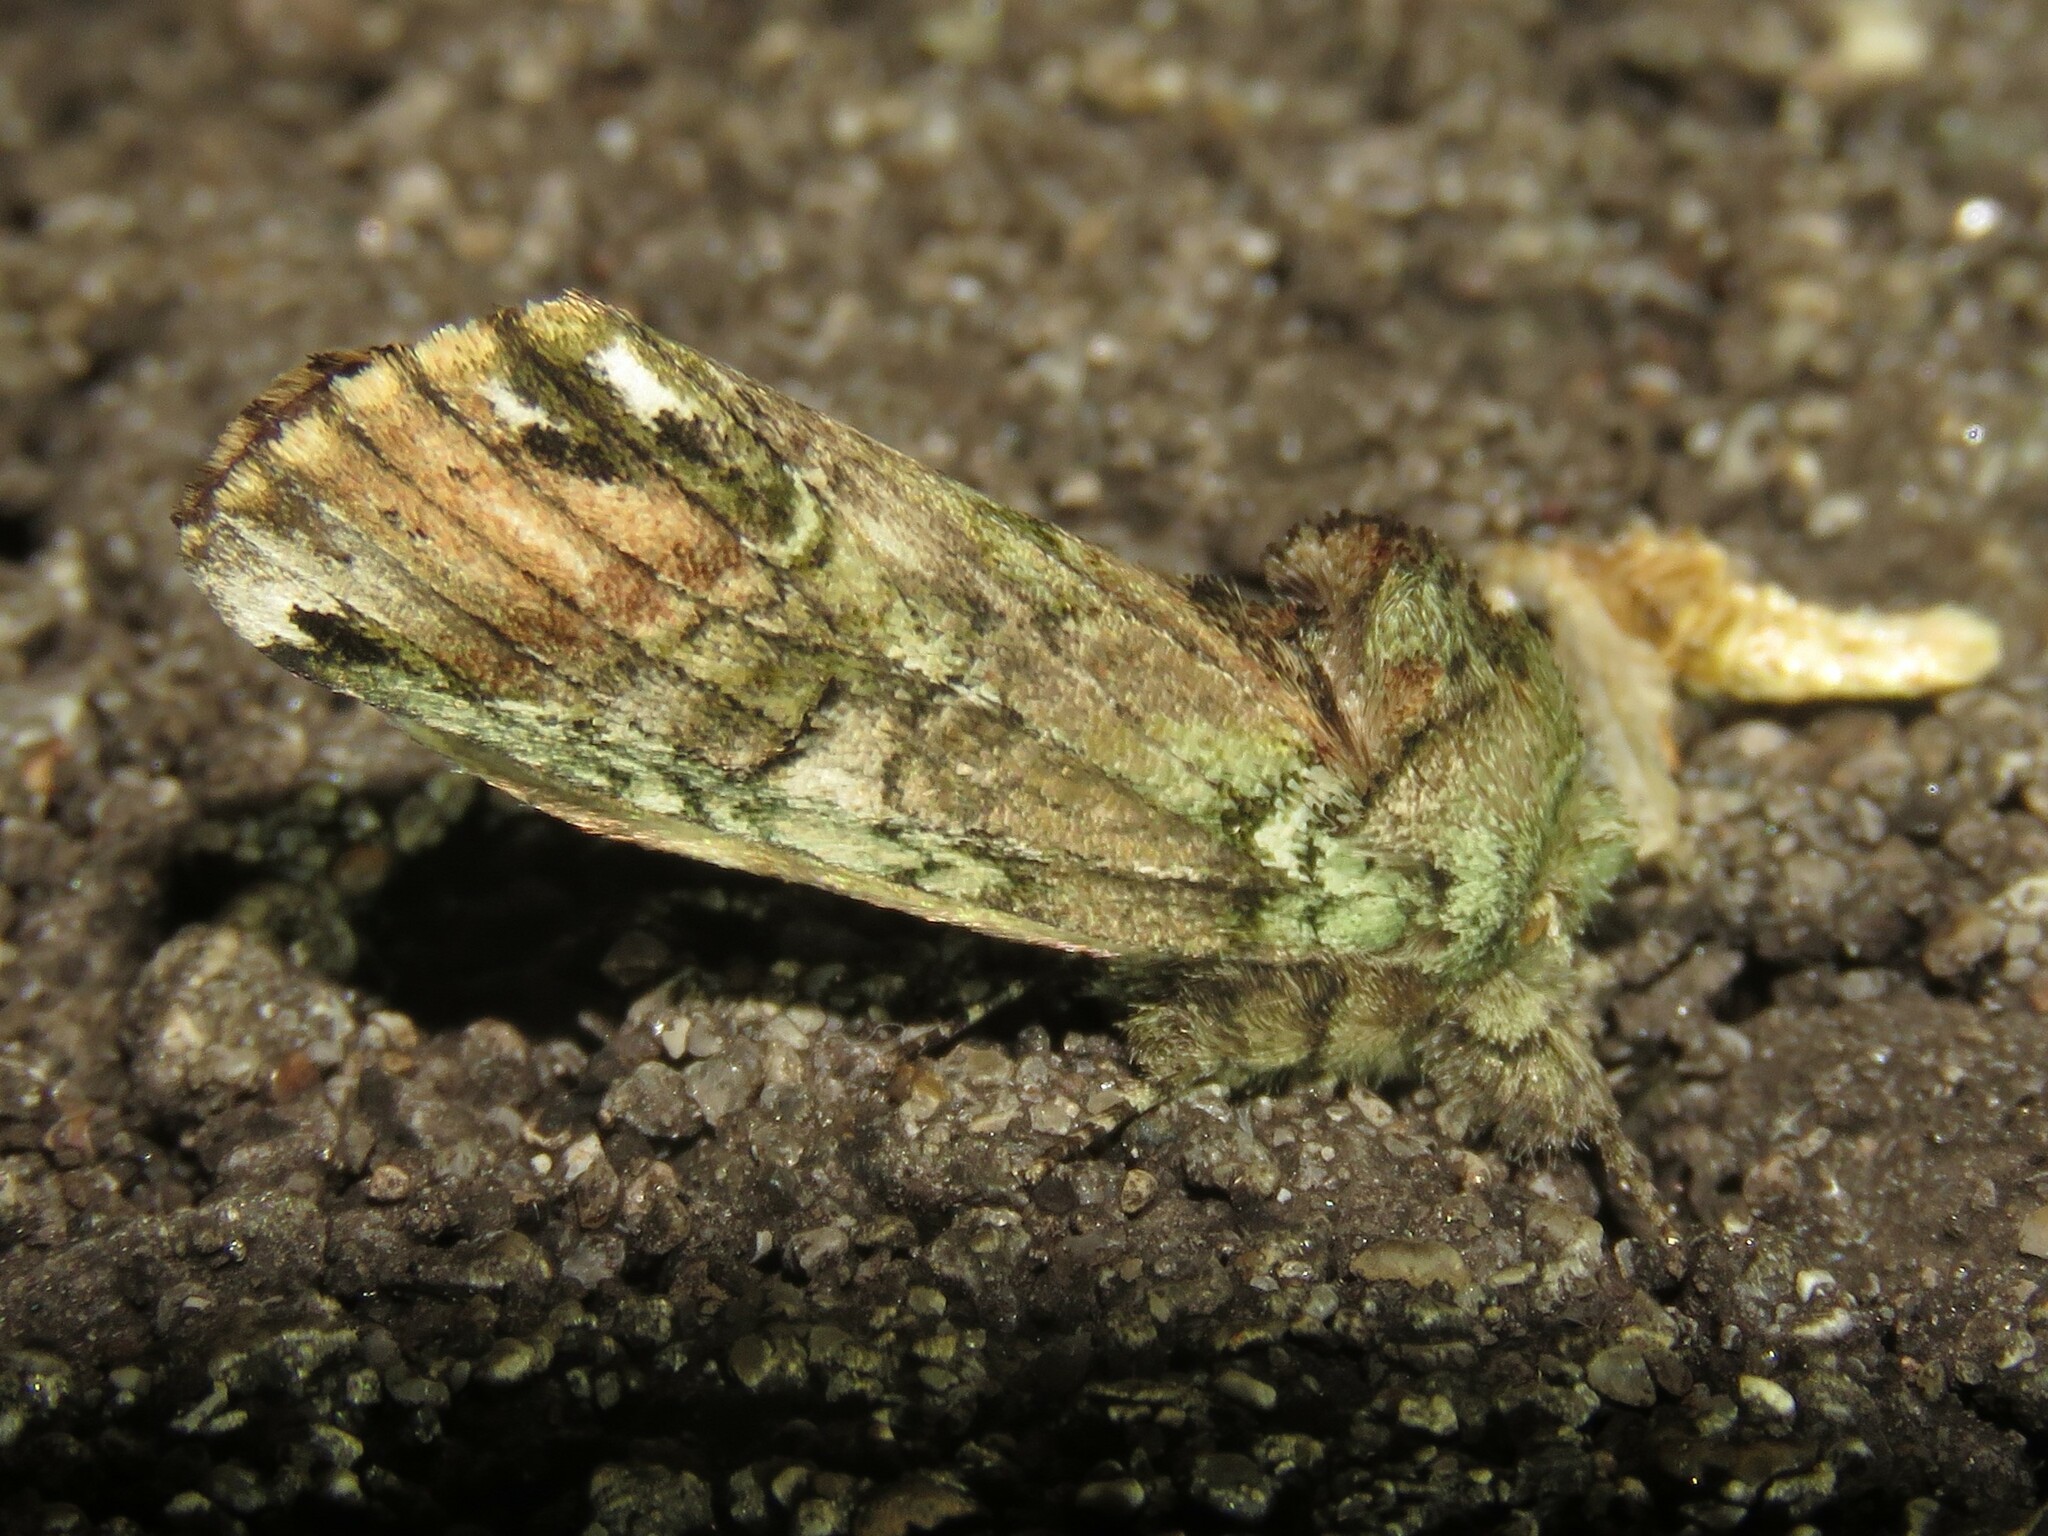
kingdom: Animalia
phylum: Arthropoda
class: Insecta
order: Lepidoptera
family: Notodontidae
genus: Schizura
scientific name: Schizura
